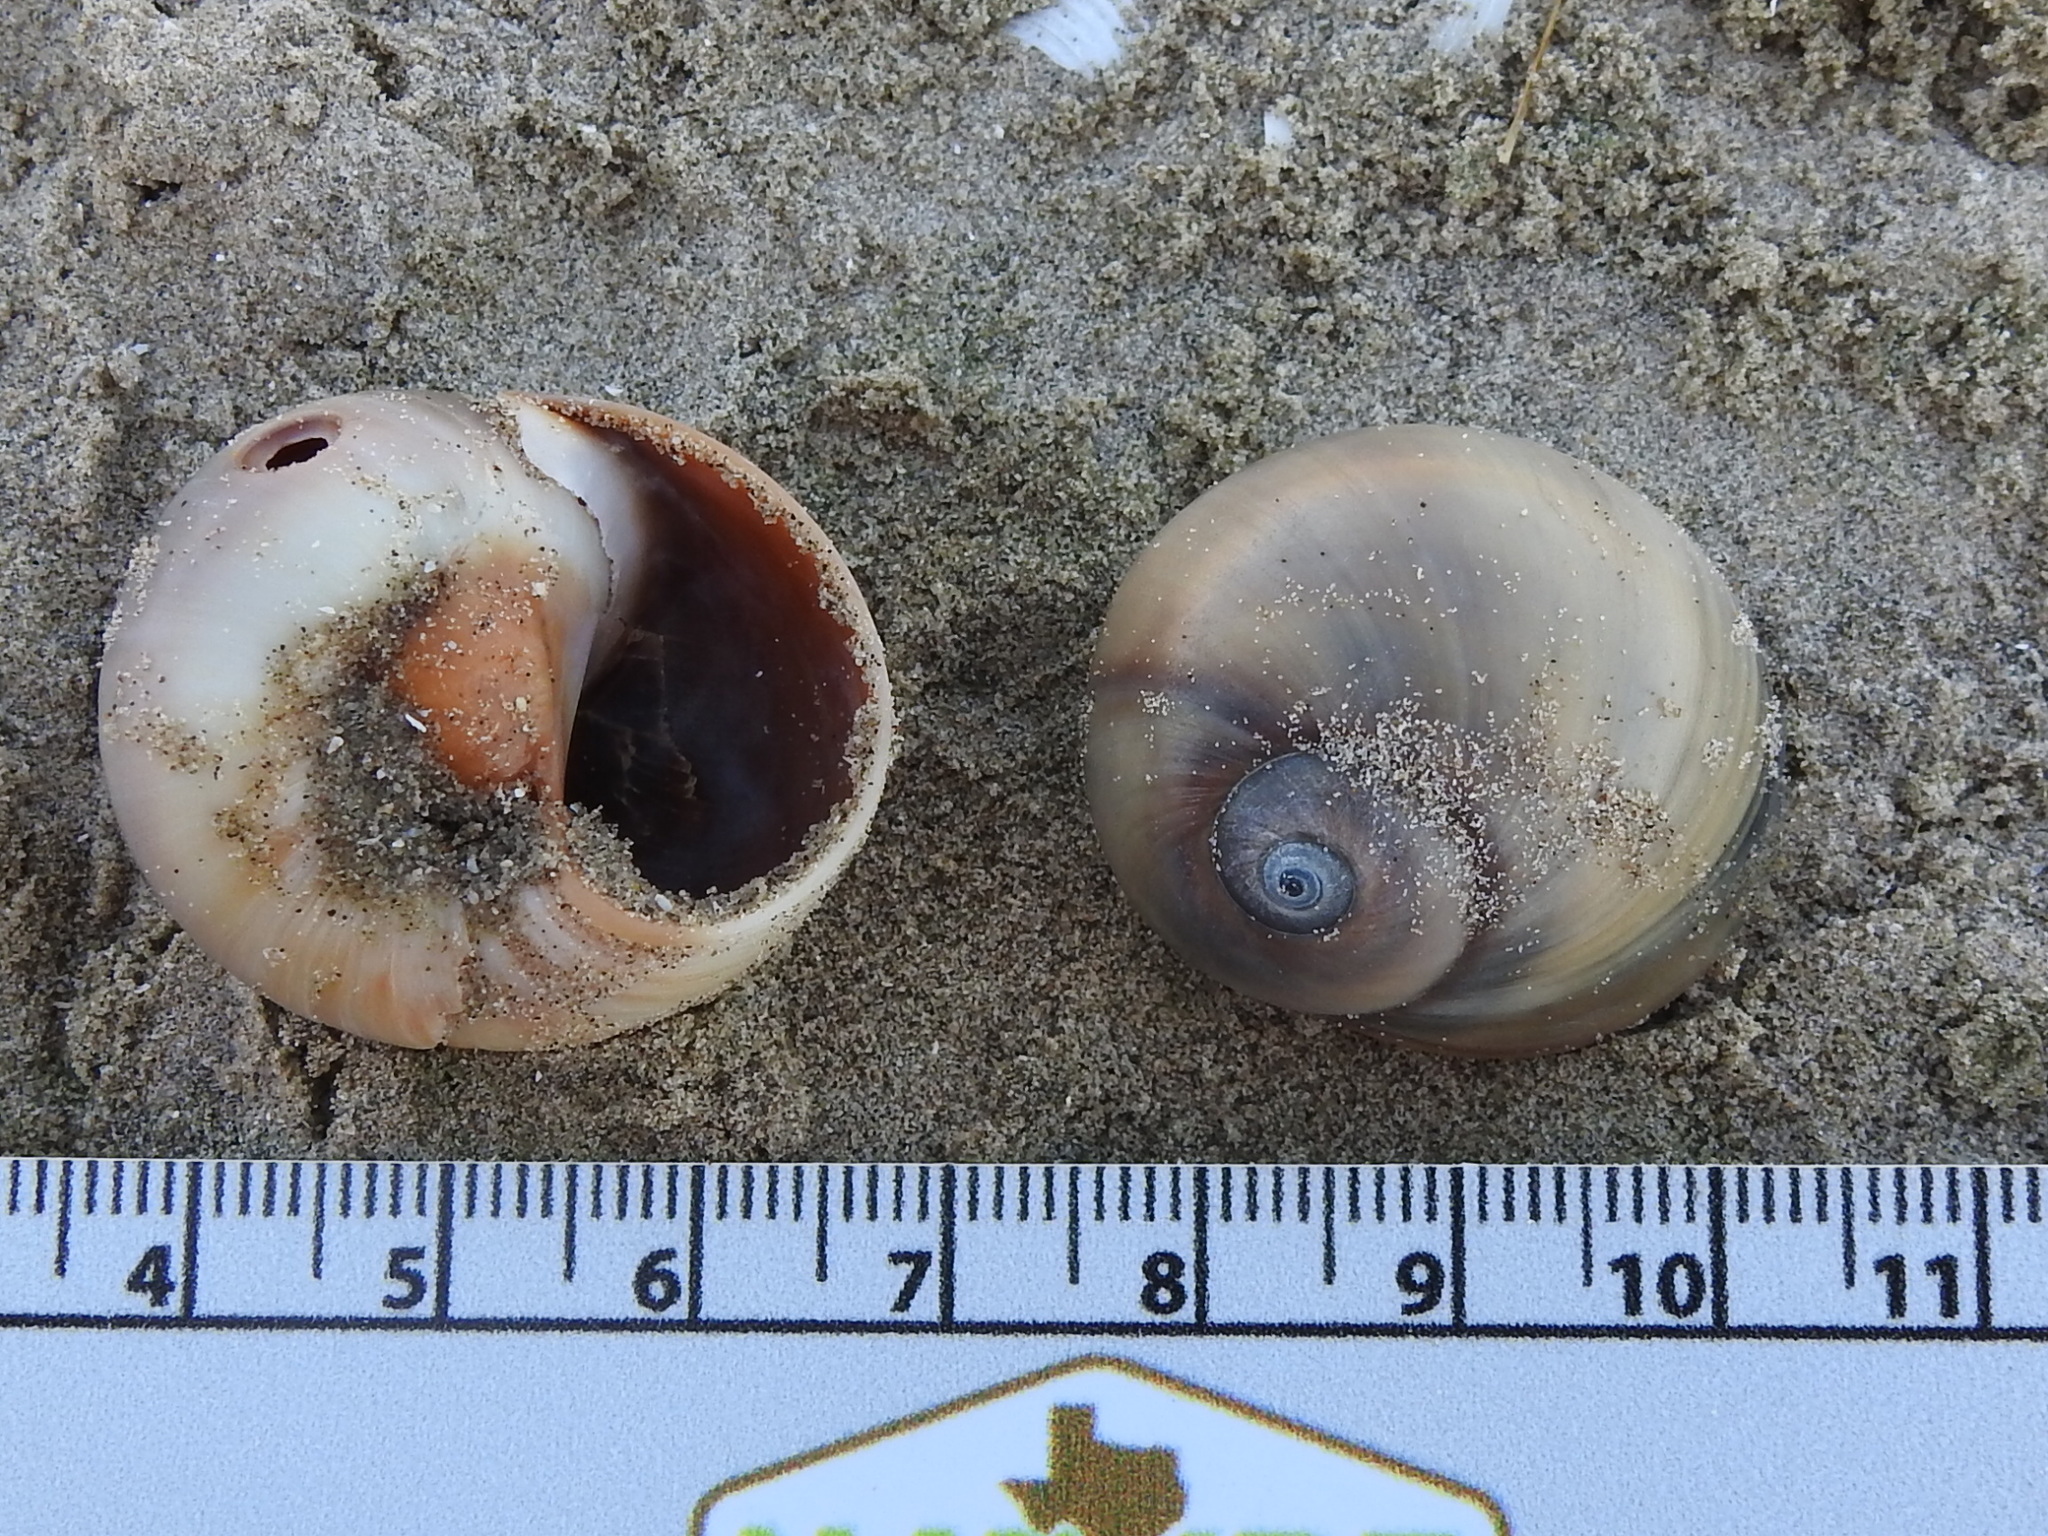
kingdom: Animalia
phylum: Mollusca
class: Gastropoda
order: Littorinimorpha
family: Naticidae
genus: Neverita
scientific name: Neverita delessertiana
